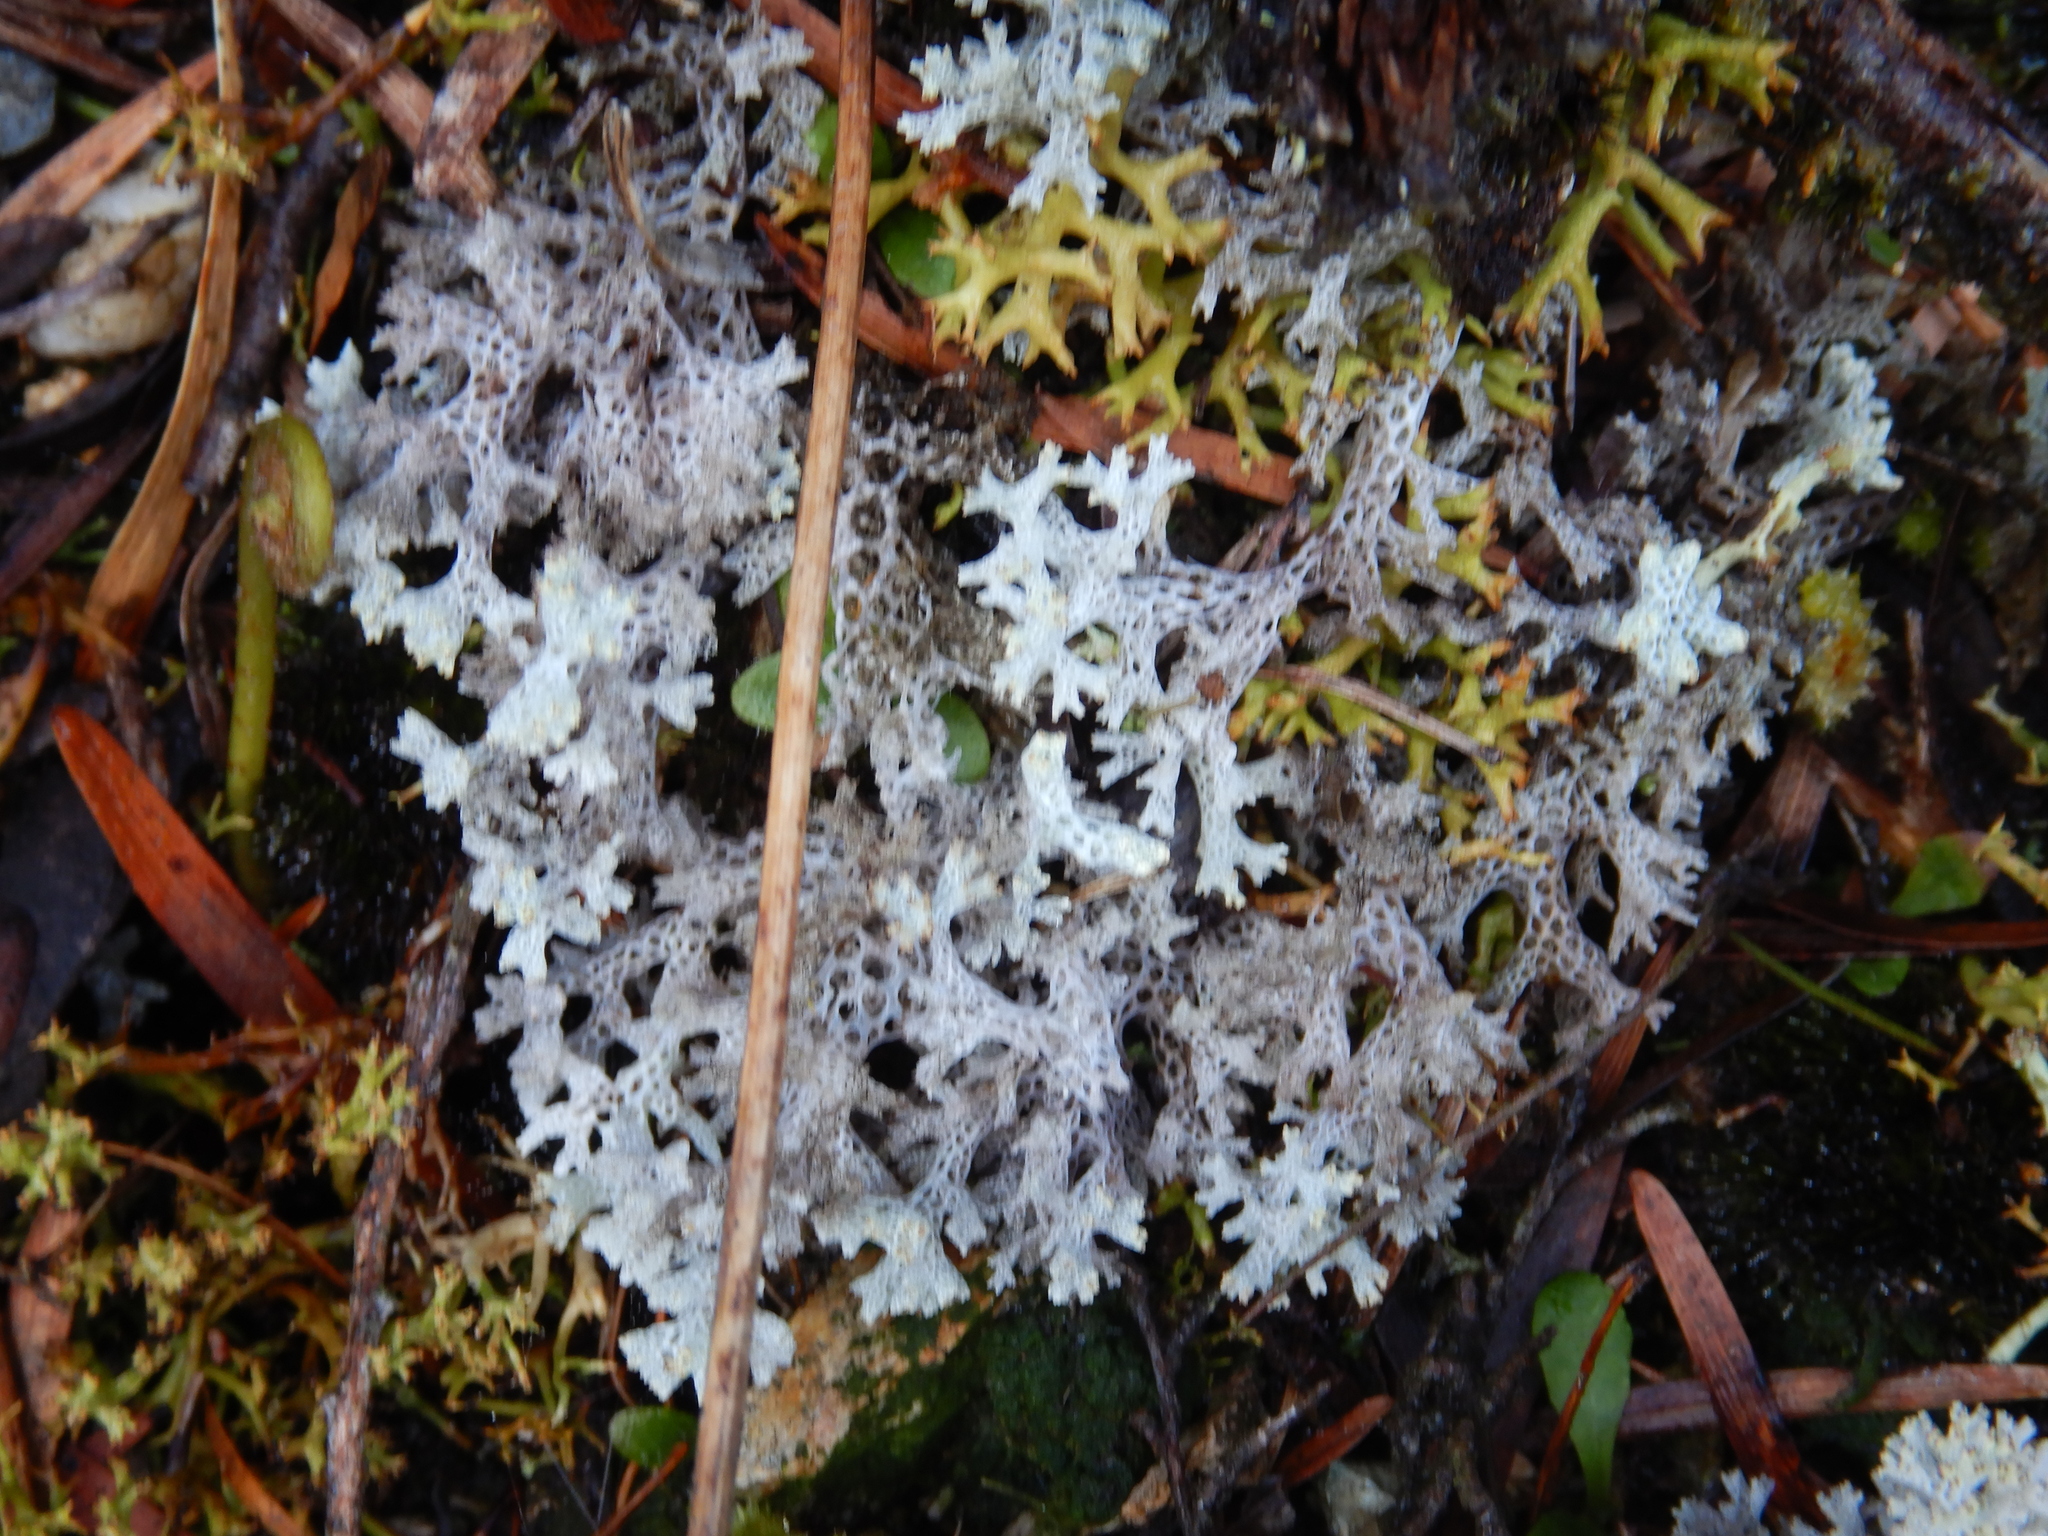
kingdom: Fungi
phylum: Ascomycota
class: Lecanoromycetes
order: Lecanorales
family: Cladoniaceae
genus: Pulchrocladia
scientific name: Pulchrocladia retipora
